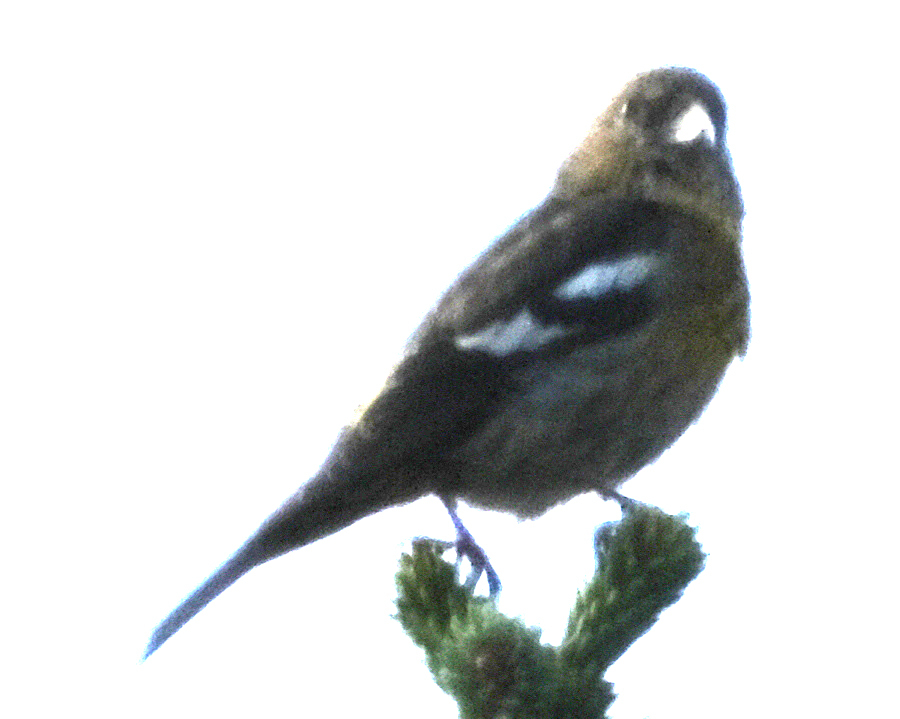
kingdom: Animalia
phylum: Chordata
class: Aves
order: Passeriformes
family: Fringillidae
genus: Loxia
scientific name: Loxia leucoptera
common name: Two-barred crossbill
